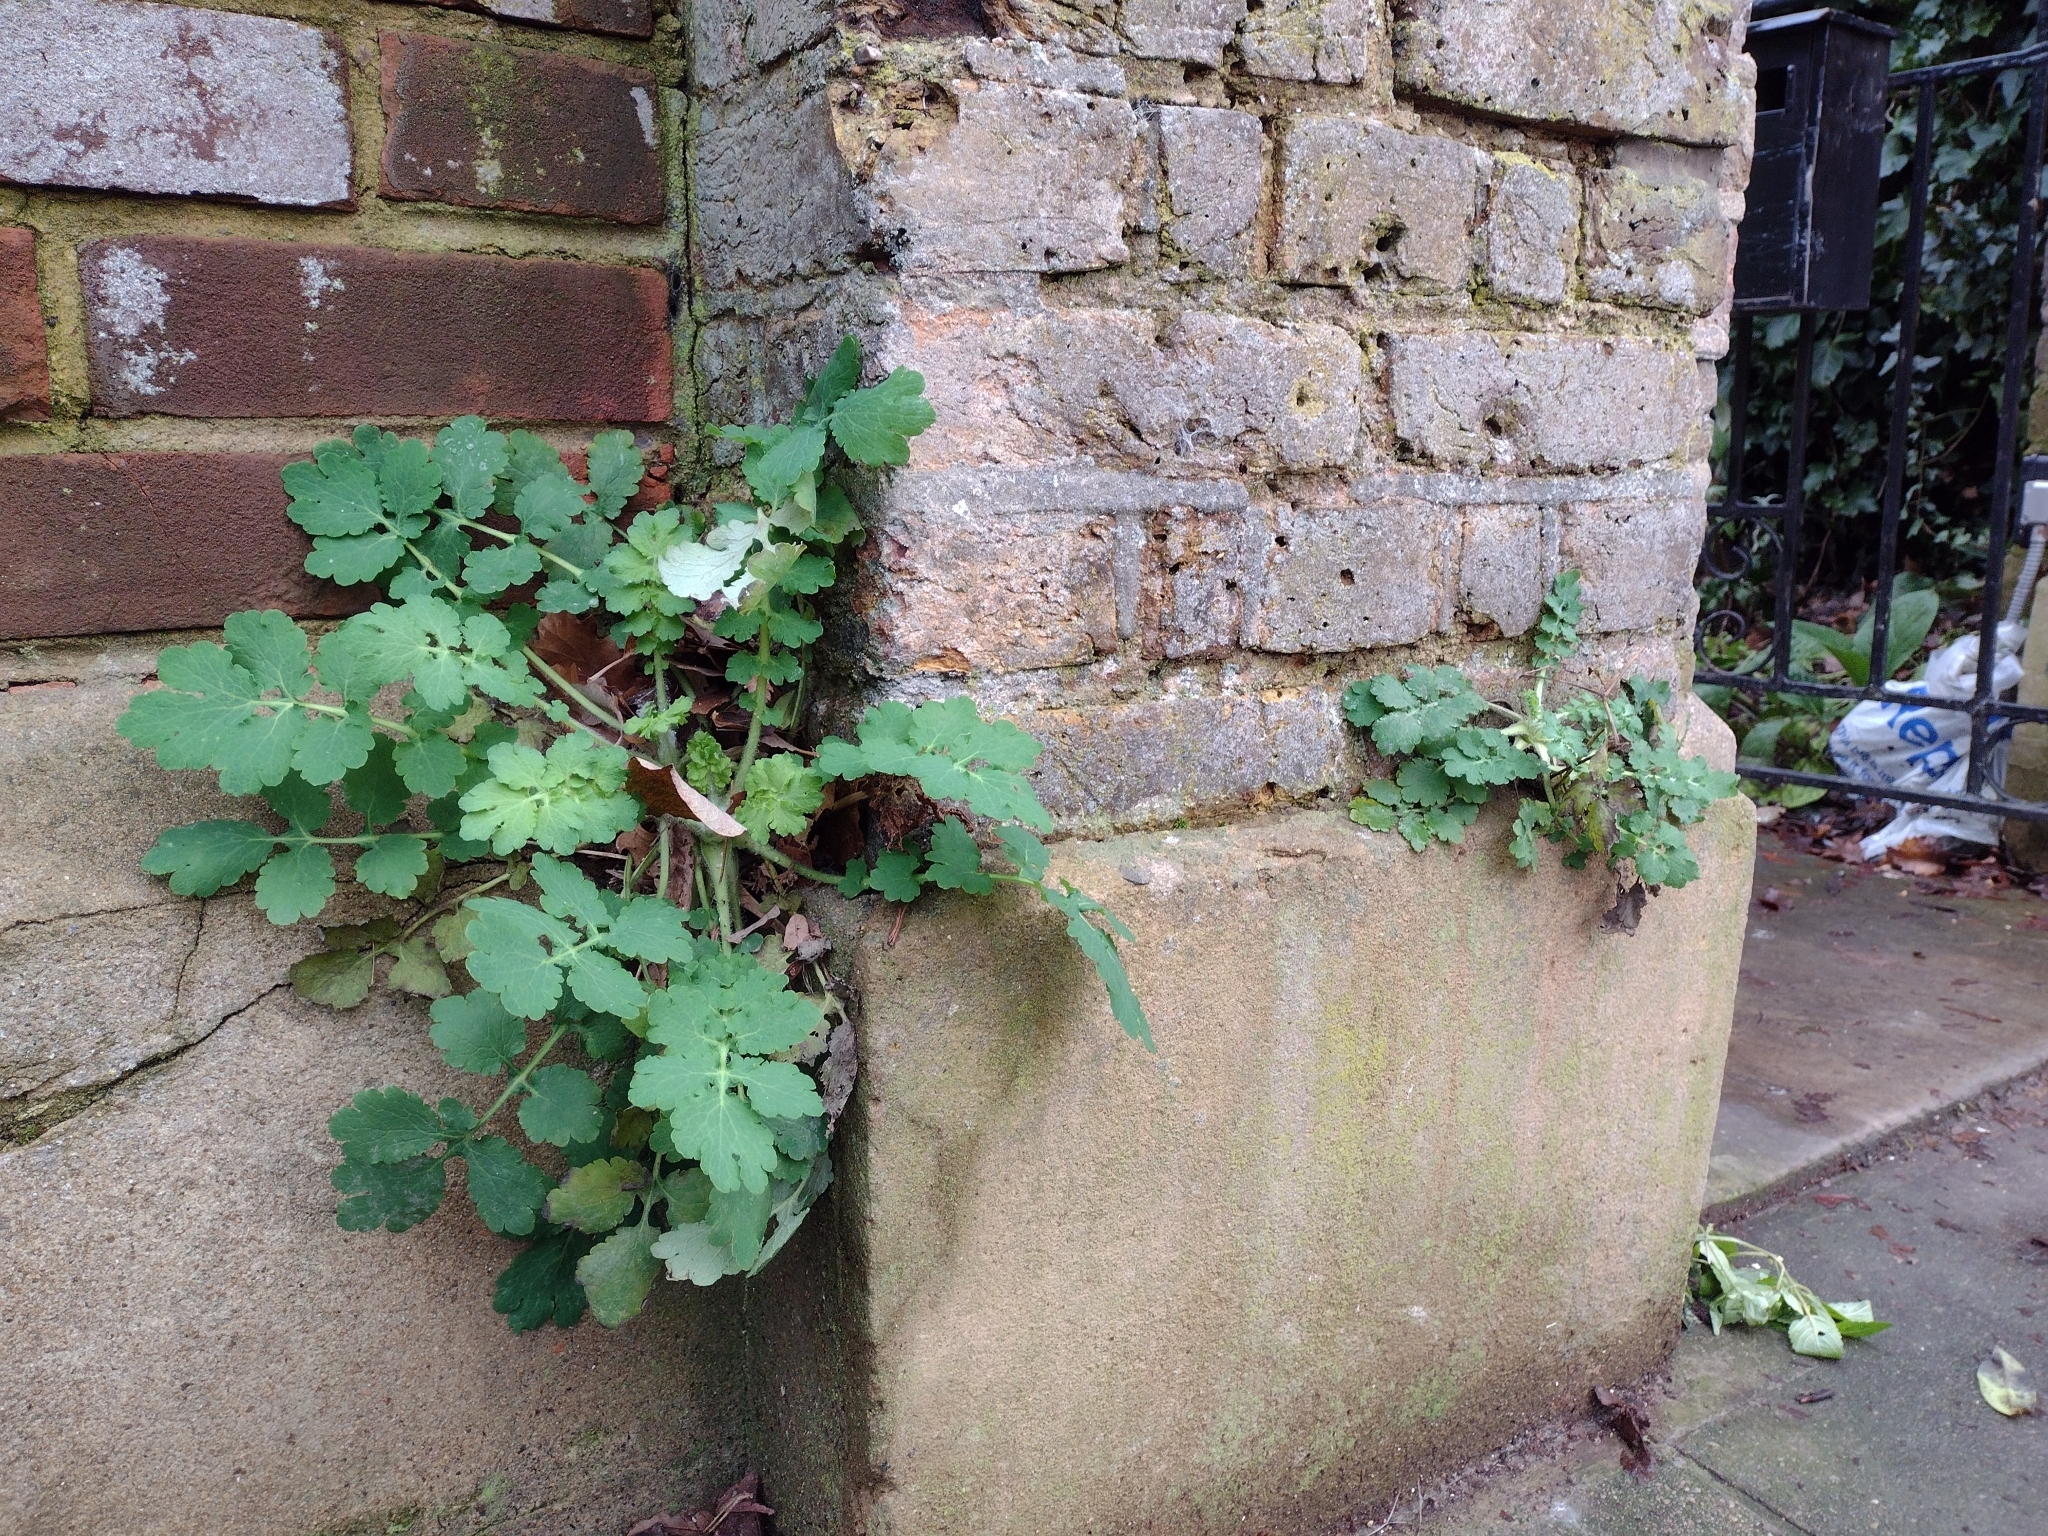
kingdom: Plantae
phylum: Tracheophyta
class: Magnoliopsida
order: Ranunculales
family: Papaveraceae
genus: Chelidonium
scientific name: Chelidonium majus
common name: Greater celandine
